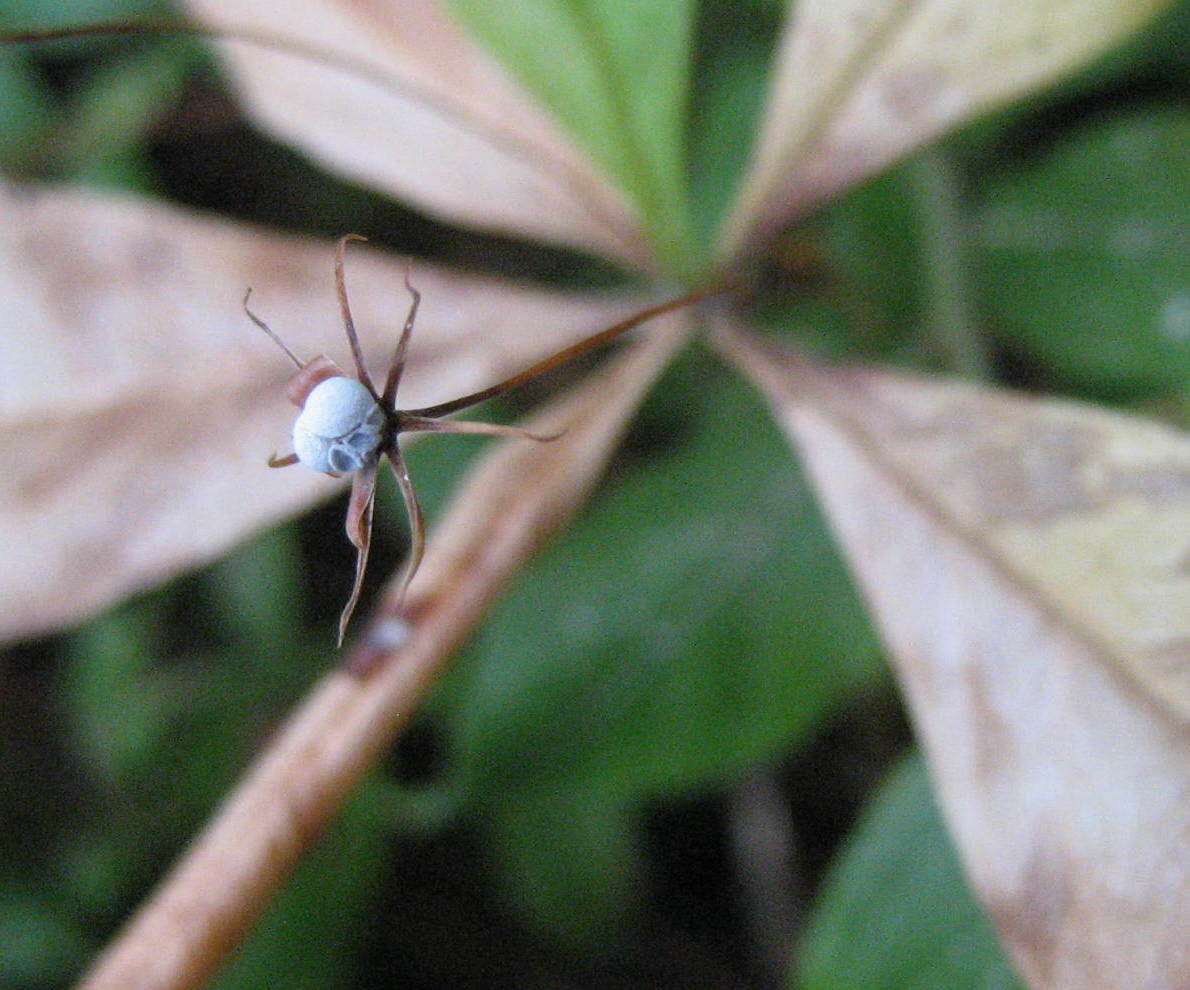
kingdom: Plantae
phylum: Tracheophyta
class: Magnoliopsida
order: Ericales
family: Primulaceae
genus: Lysimachia
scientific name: Lysimachia borealis
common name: American starflower
